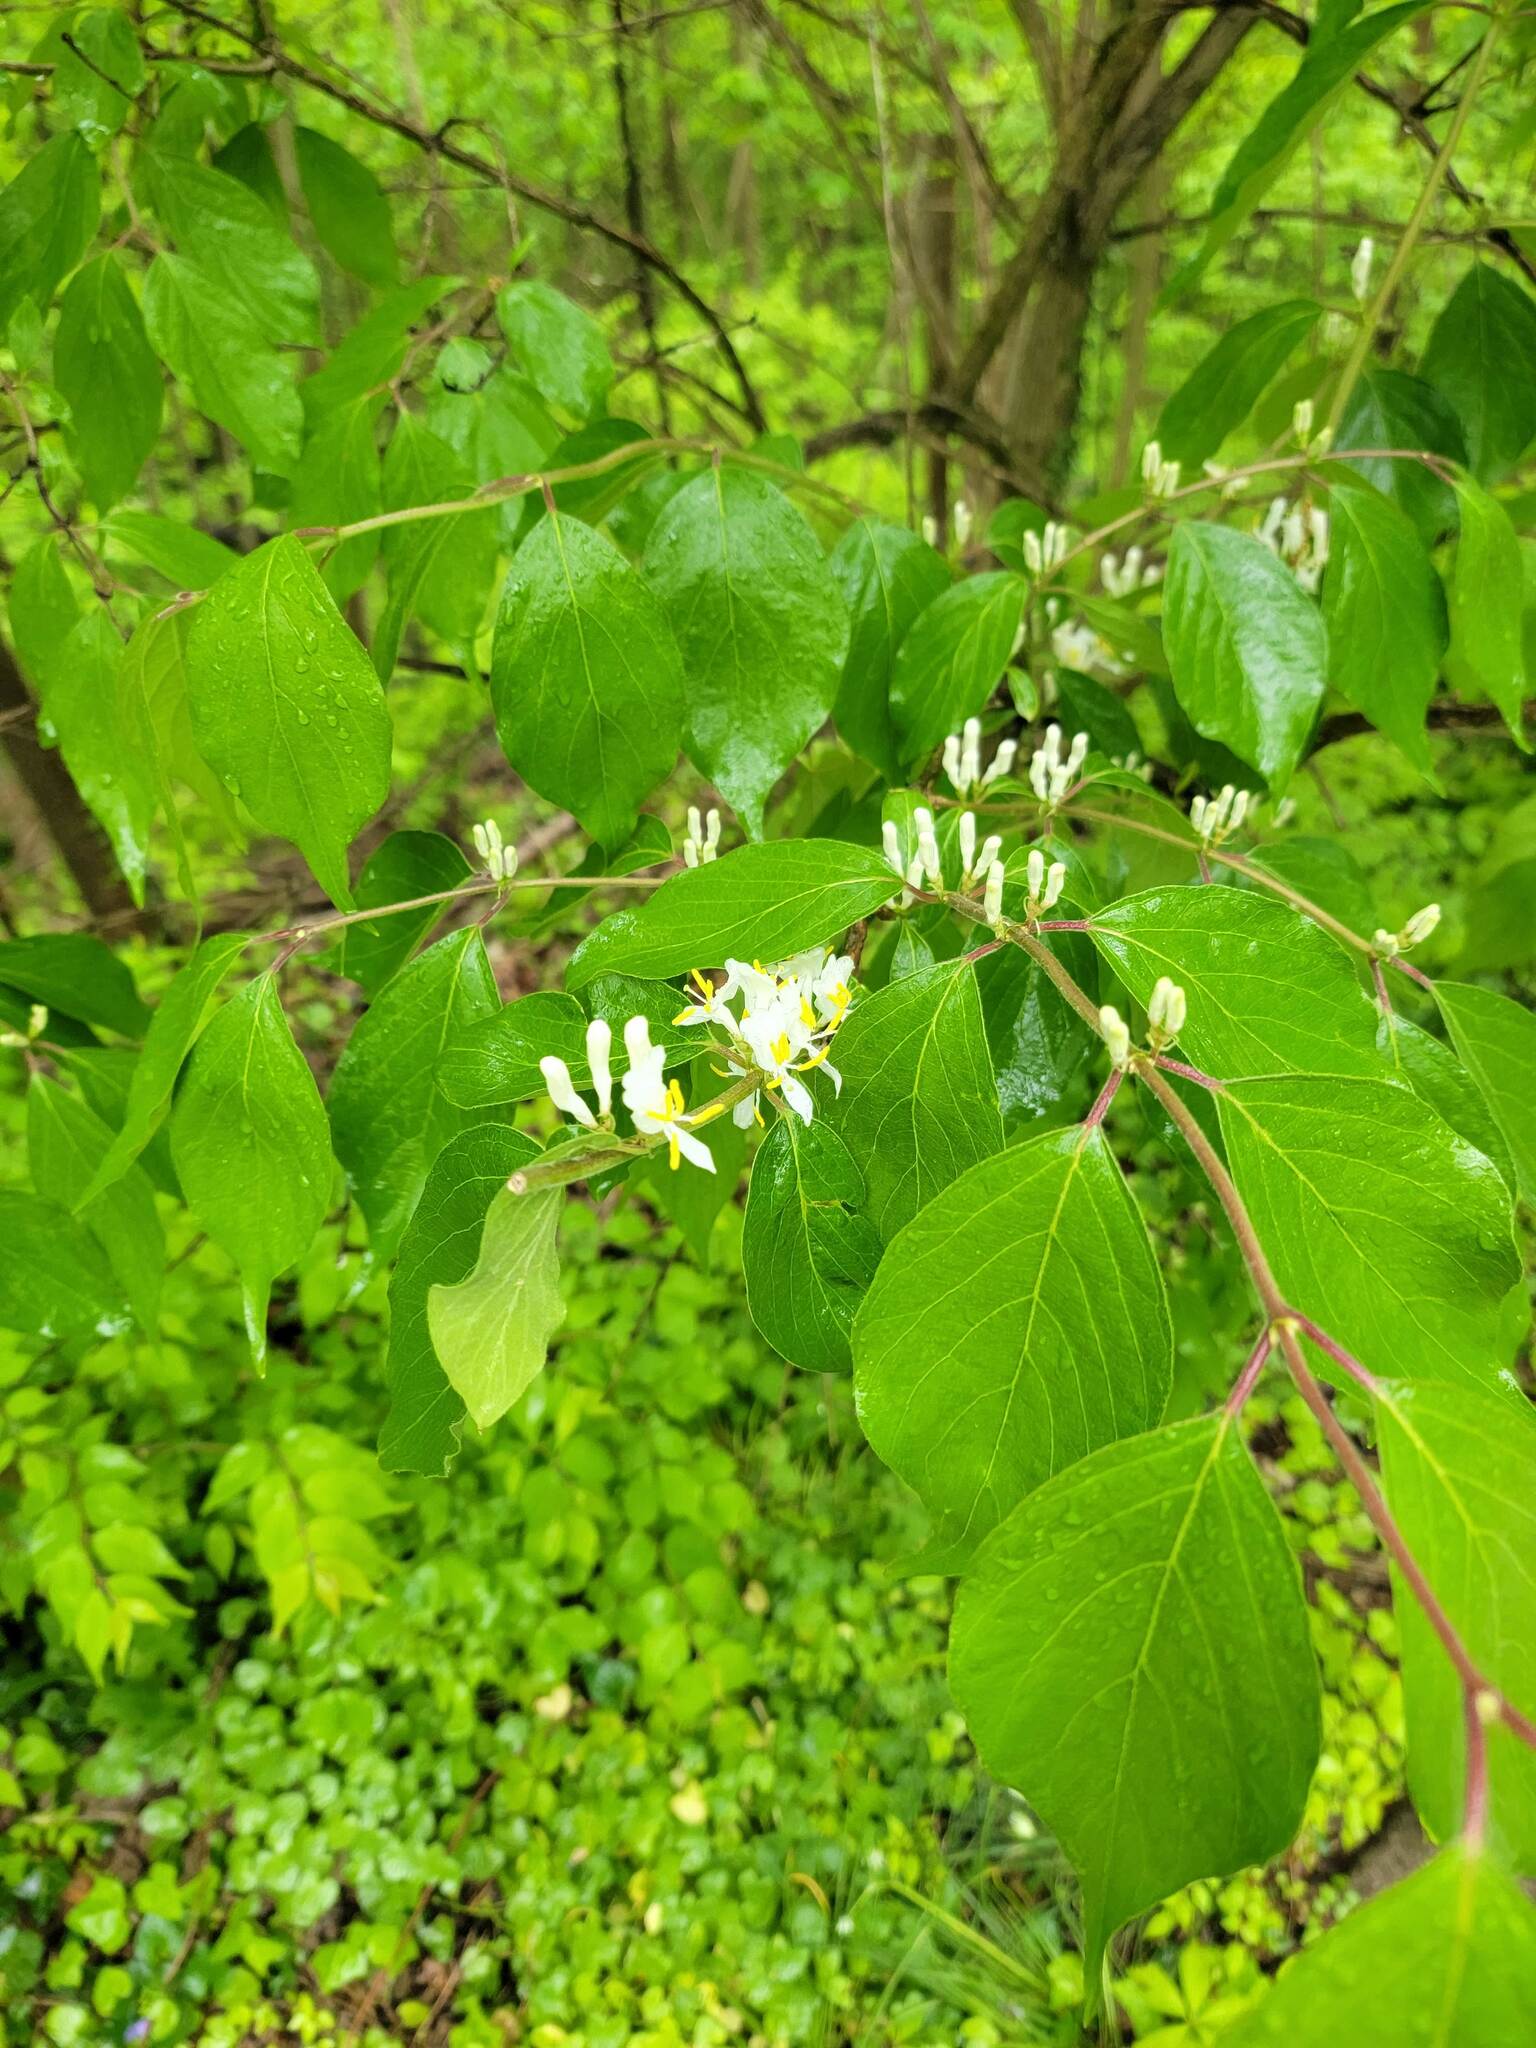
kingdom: Plantae
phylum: Tracheophyta
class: Magnoliopsida
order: Dipsacales
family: Caprifoliaceae
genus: Lonicera
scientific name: Lonicera maackii
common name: Amur honeysuckle
